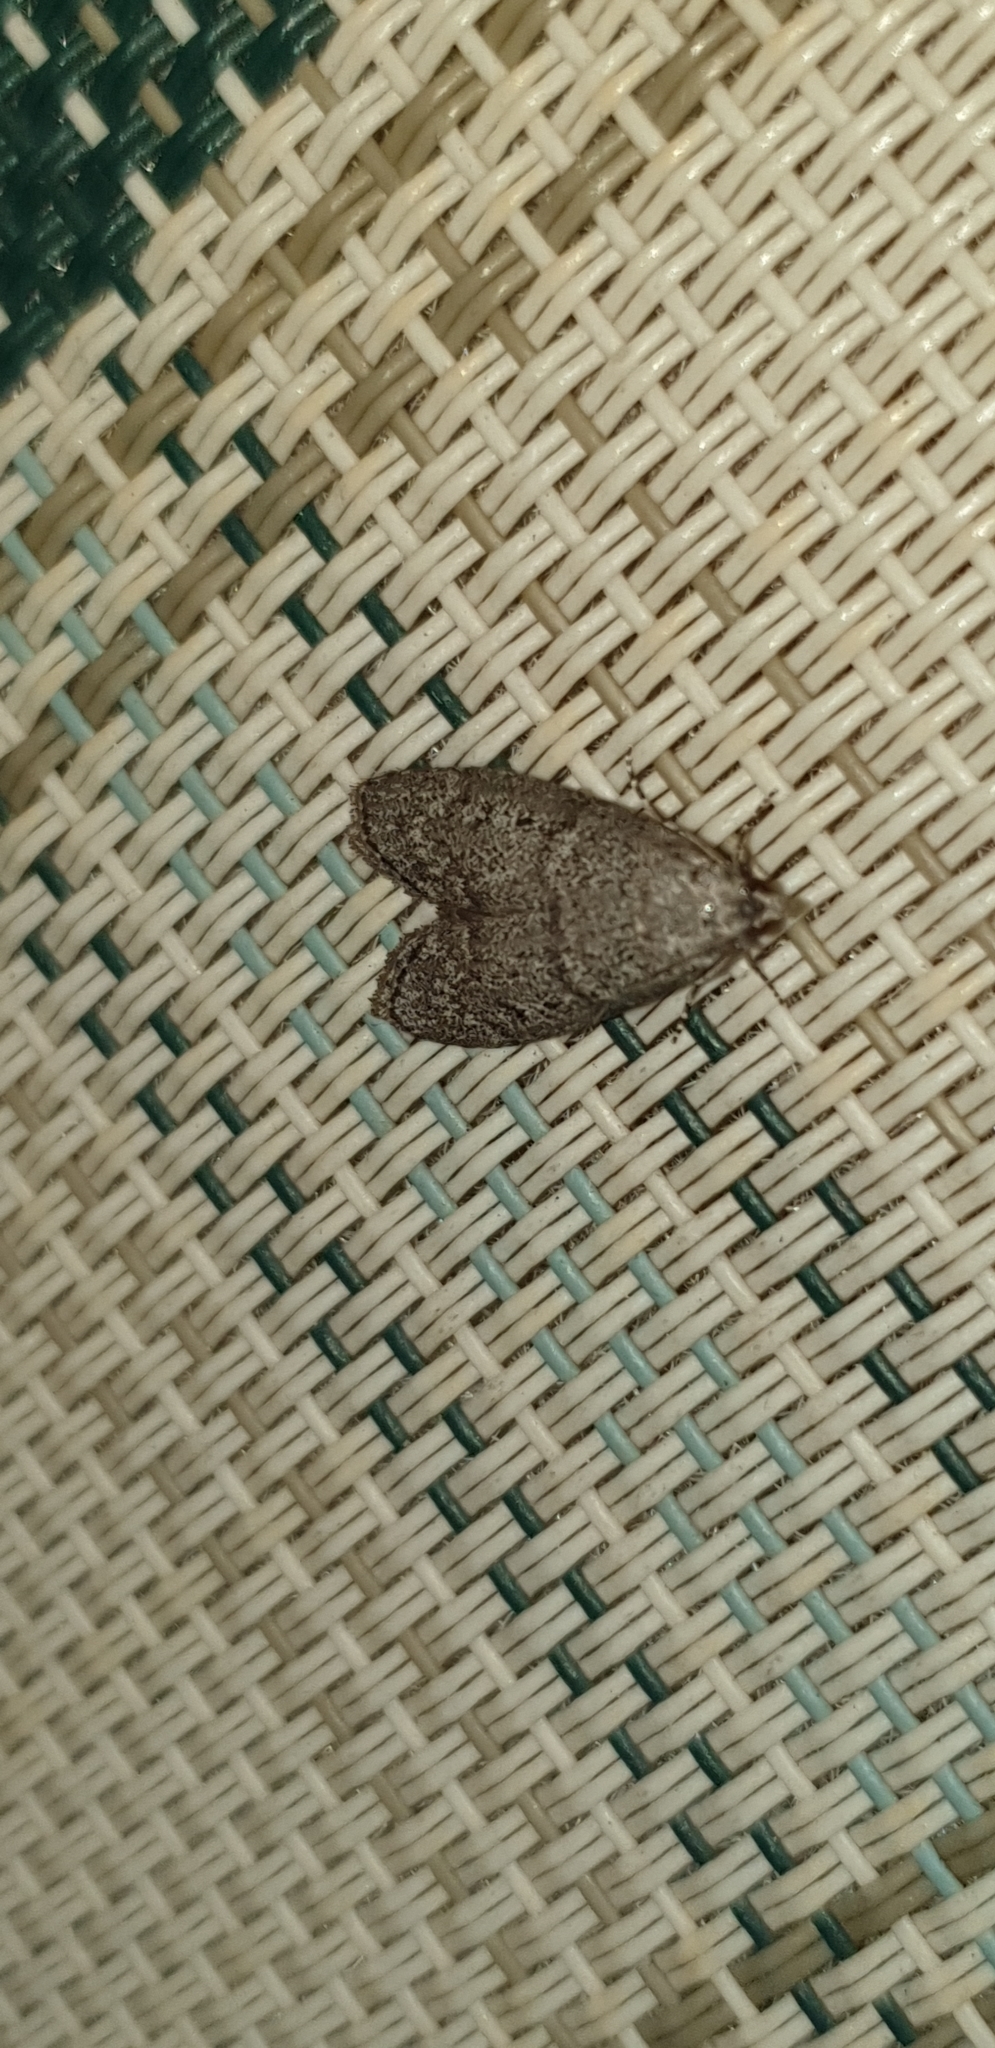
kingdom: Animalia
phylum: Arthropoda
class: Insecta
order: Lepidoptera
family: Pyralidae
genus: Heteromicta
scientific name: Heteromicta pachytera
